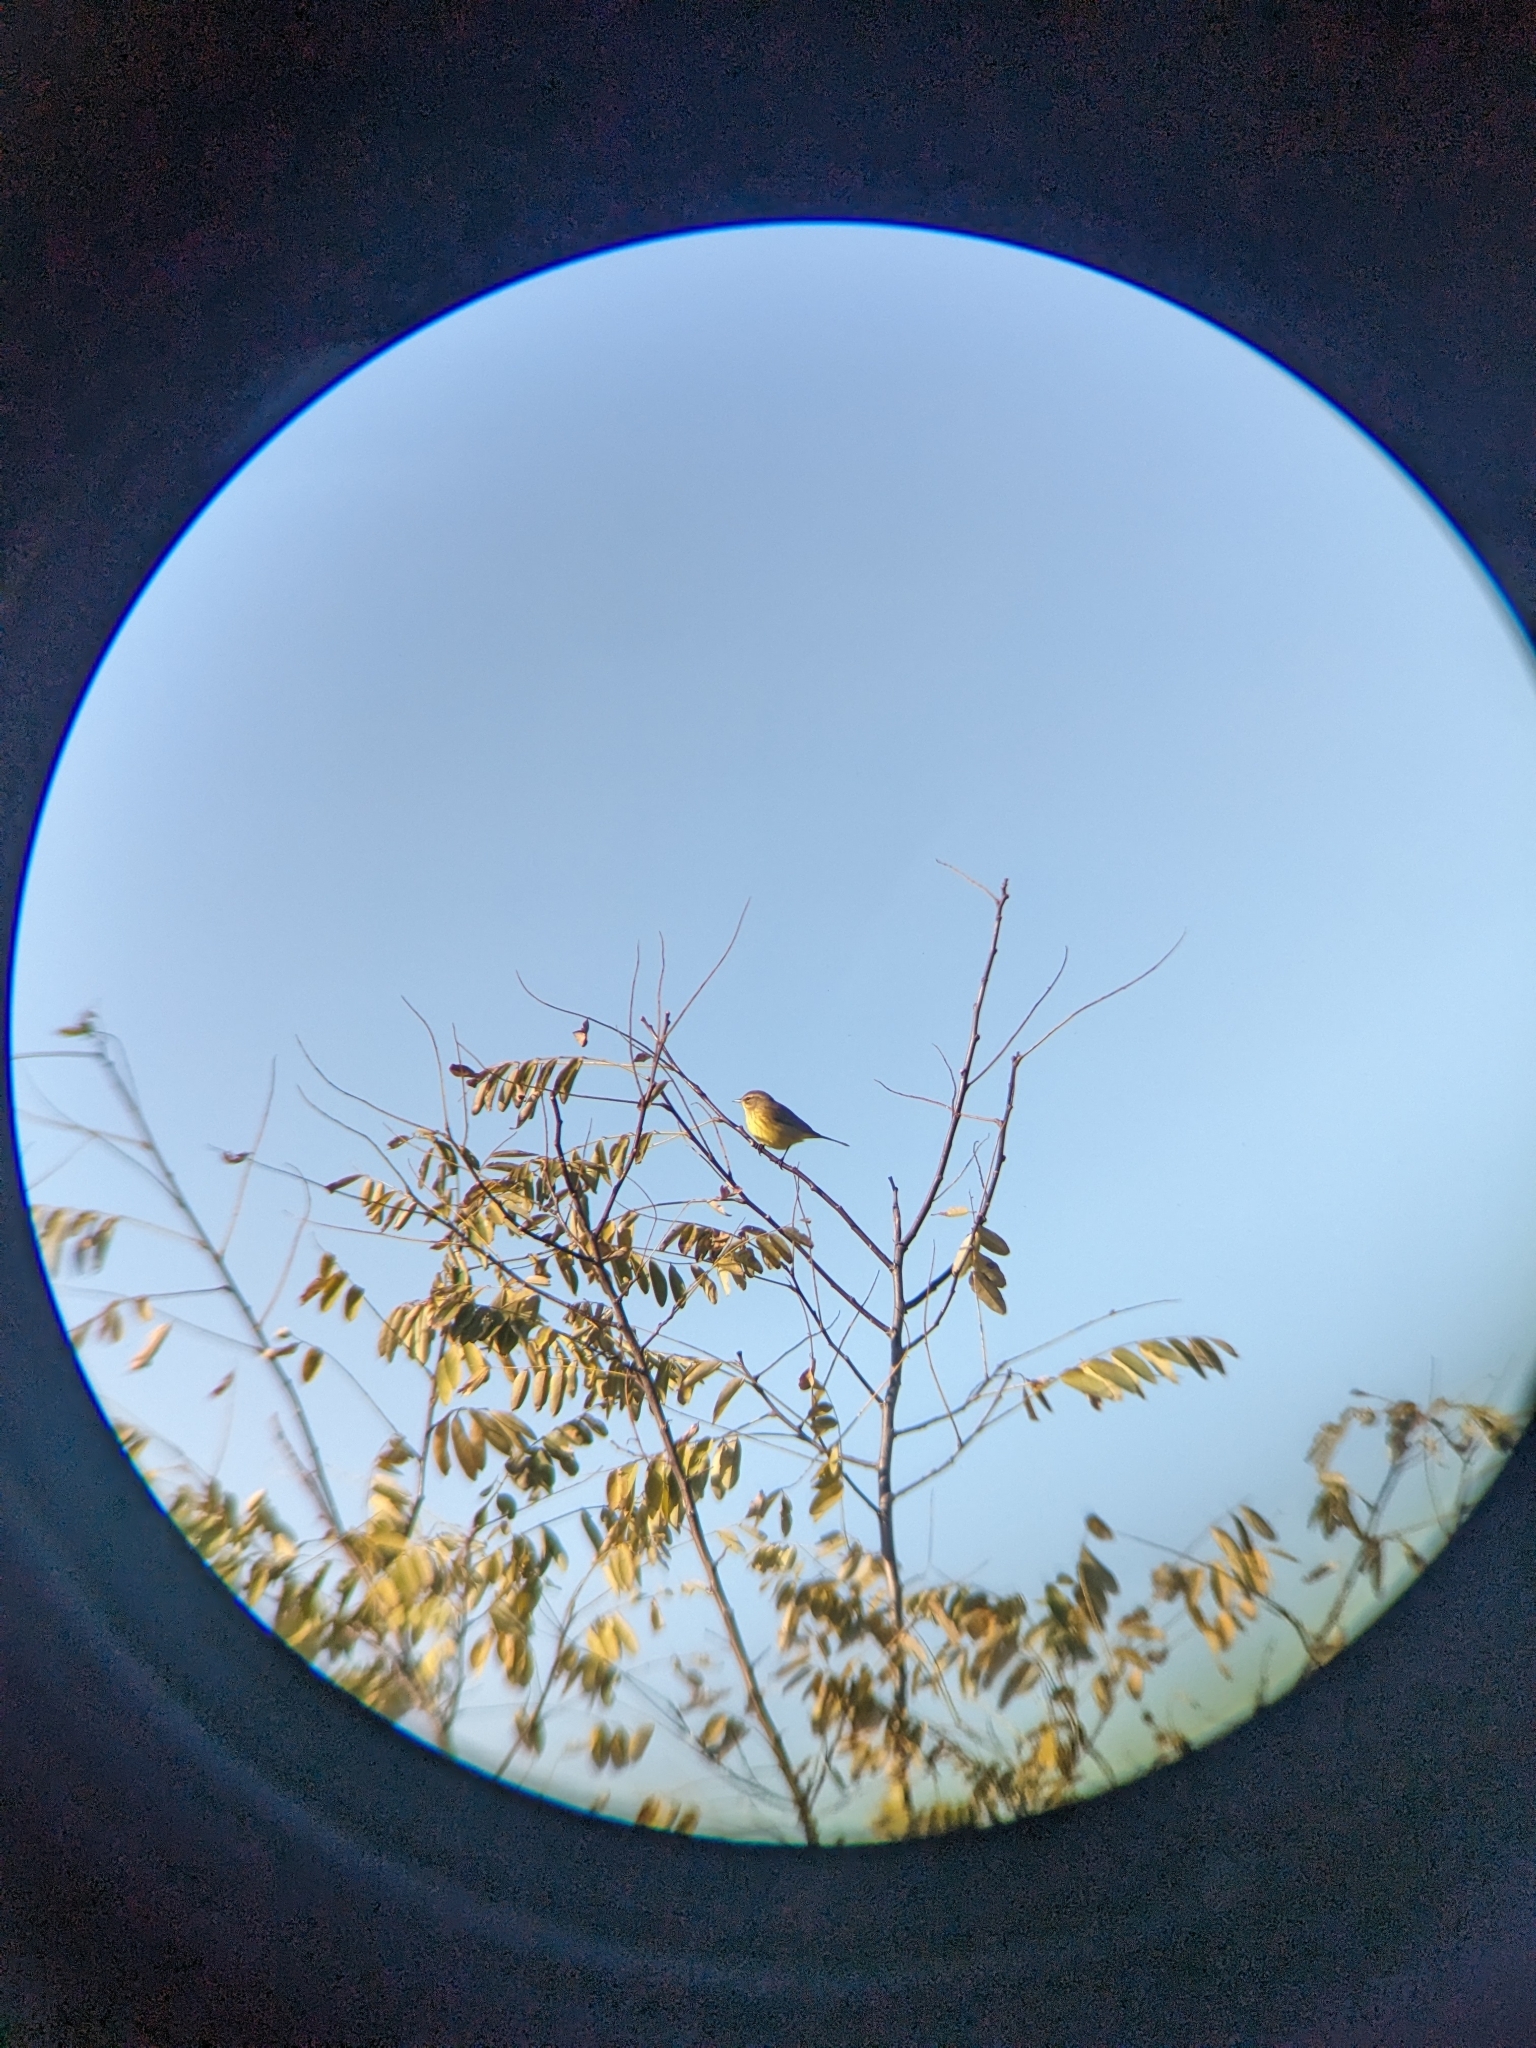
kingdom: Animalia
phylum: Chordata
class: Aves
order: Passeriformes
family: Parulidae
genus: Setophaga
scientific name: Setophaga palmarum
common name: Palm warbler
